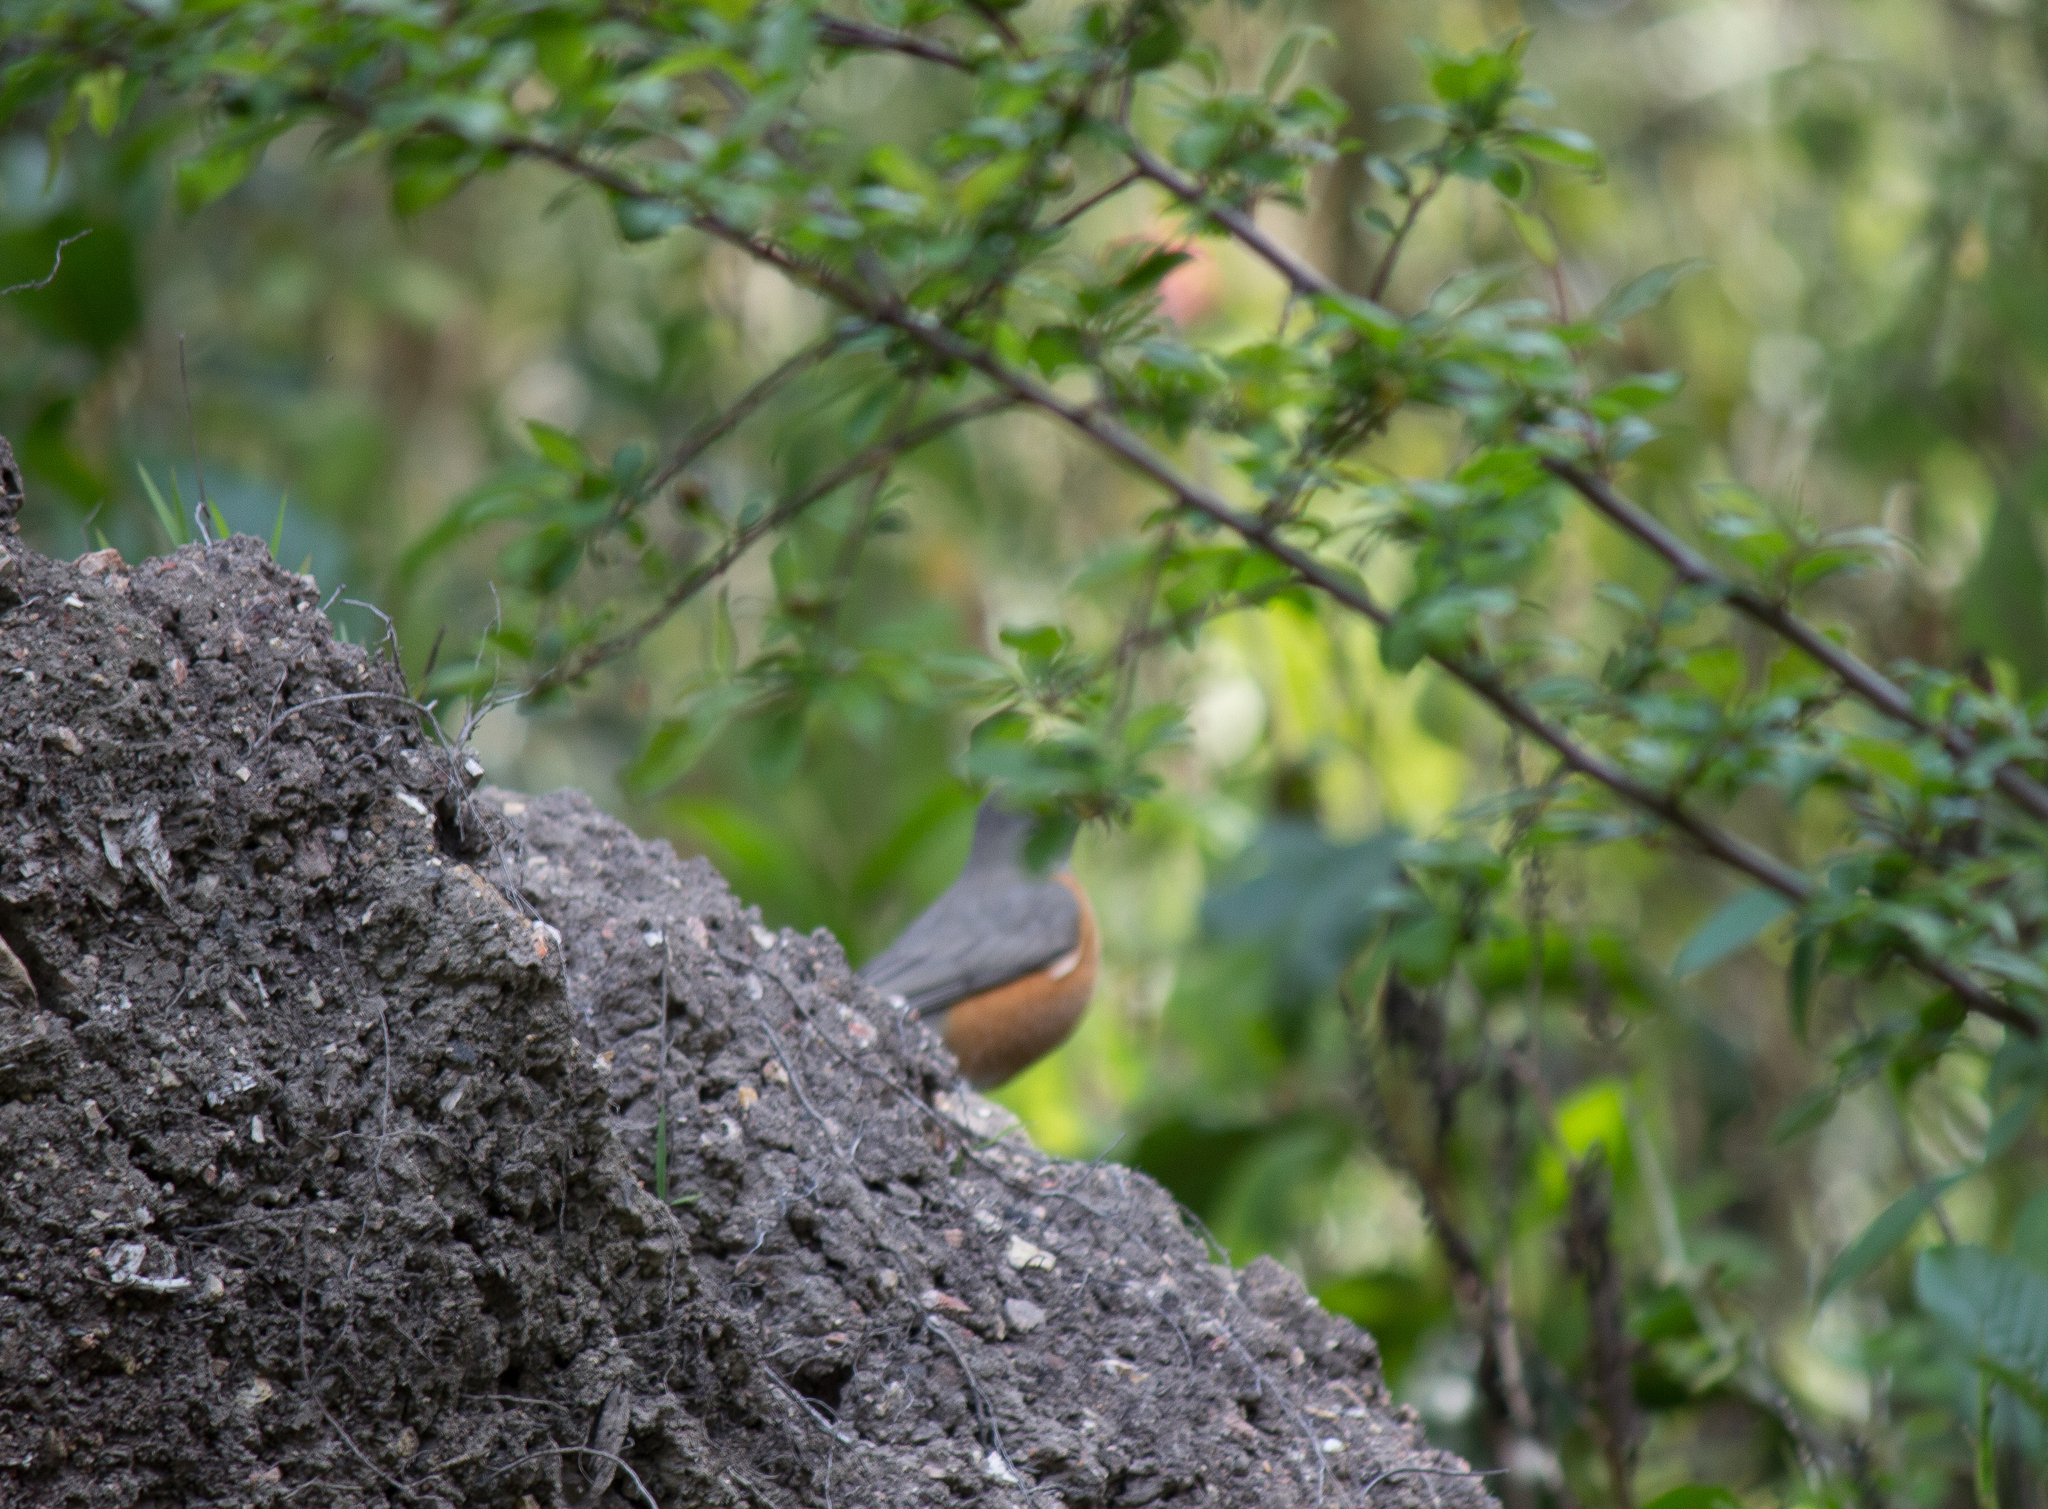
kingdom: Animalia
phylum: Chordata
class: Aves
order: Passeriformes
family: Turdidae
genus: Turdus
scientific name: Turdus migratorius
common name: American robin
